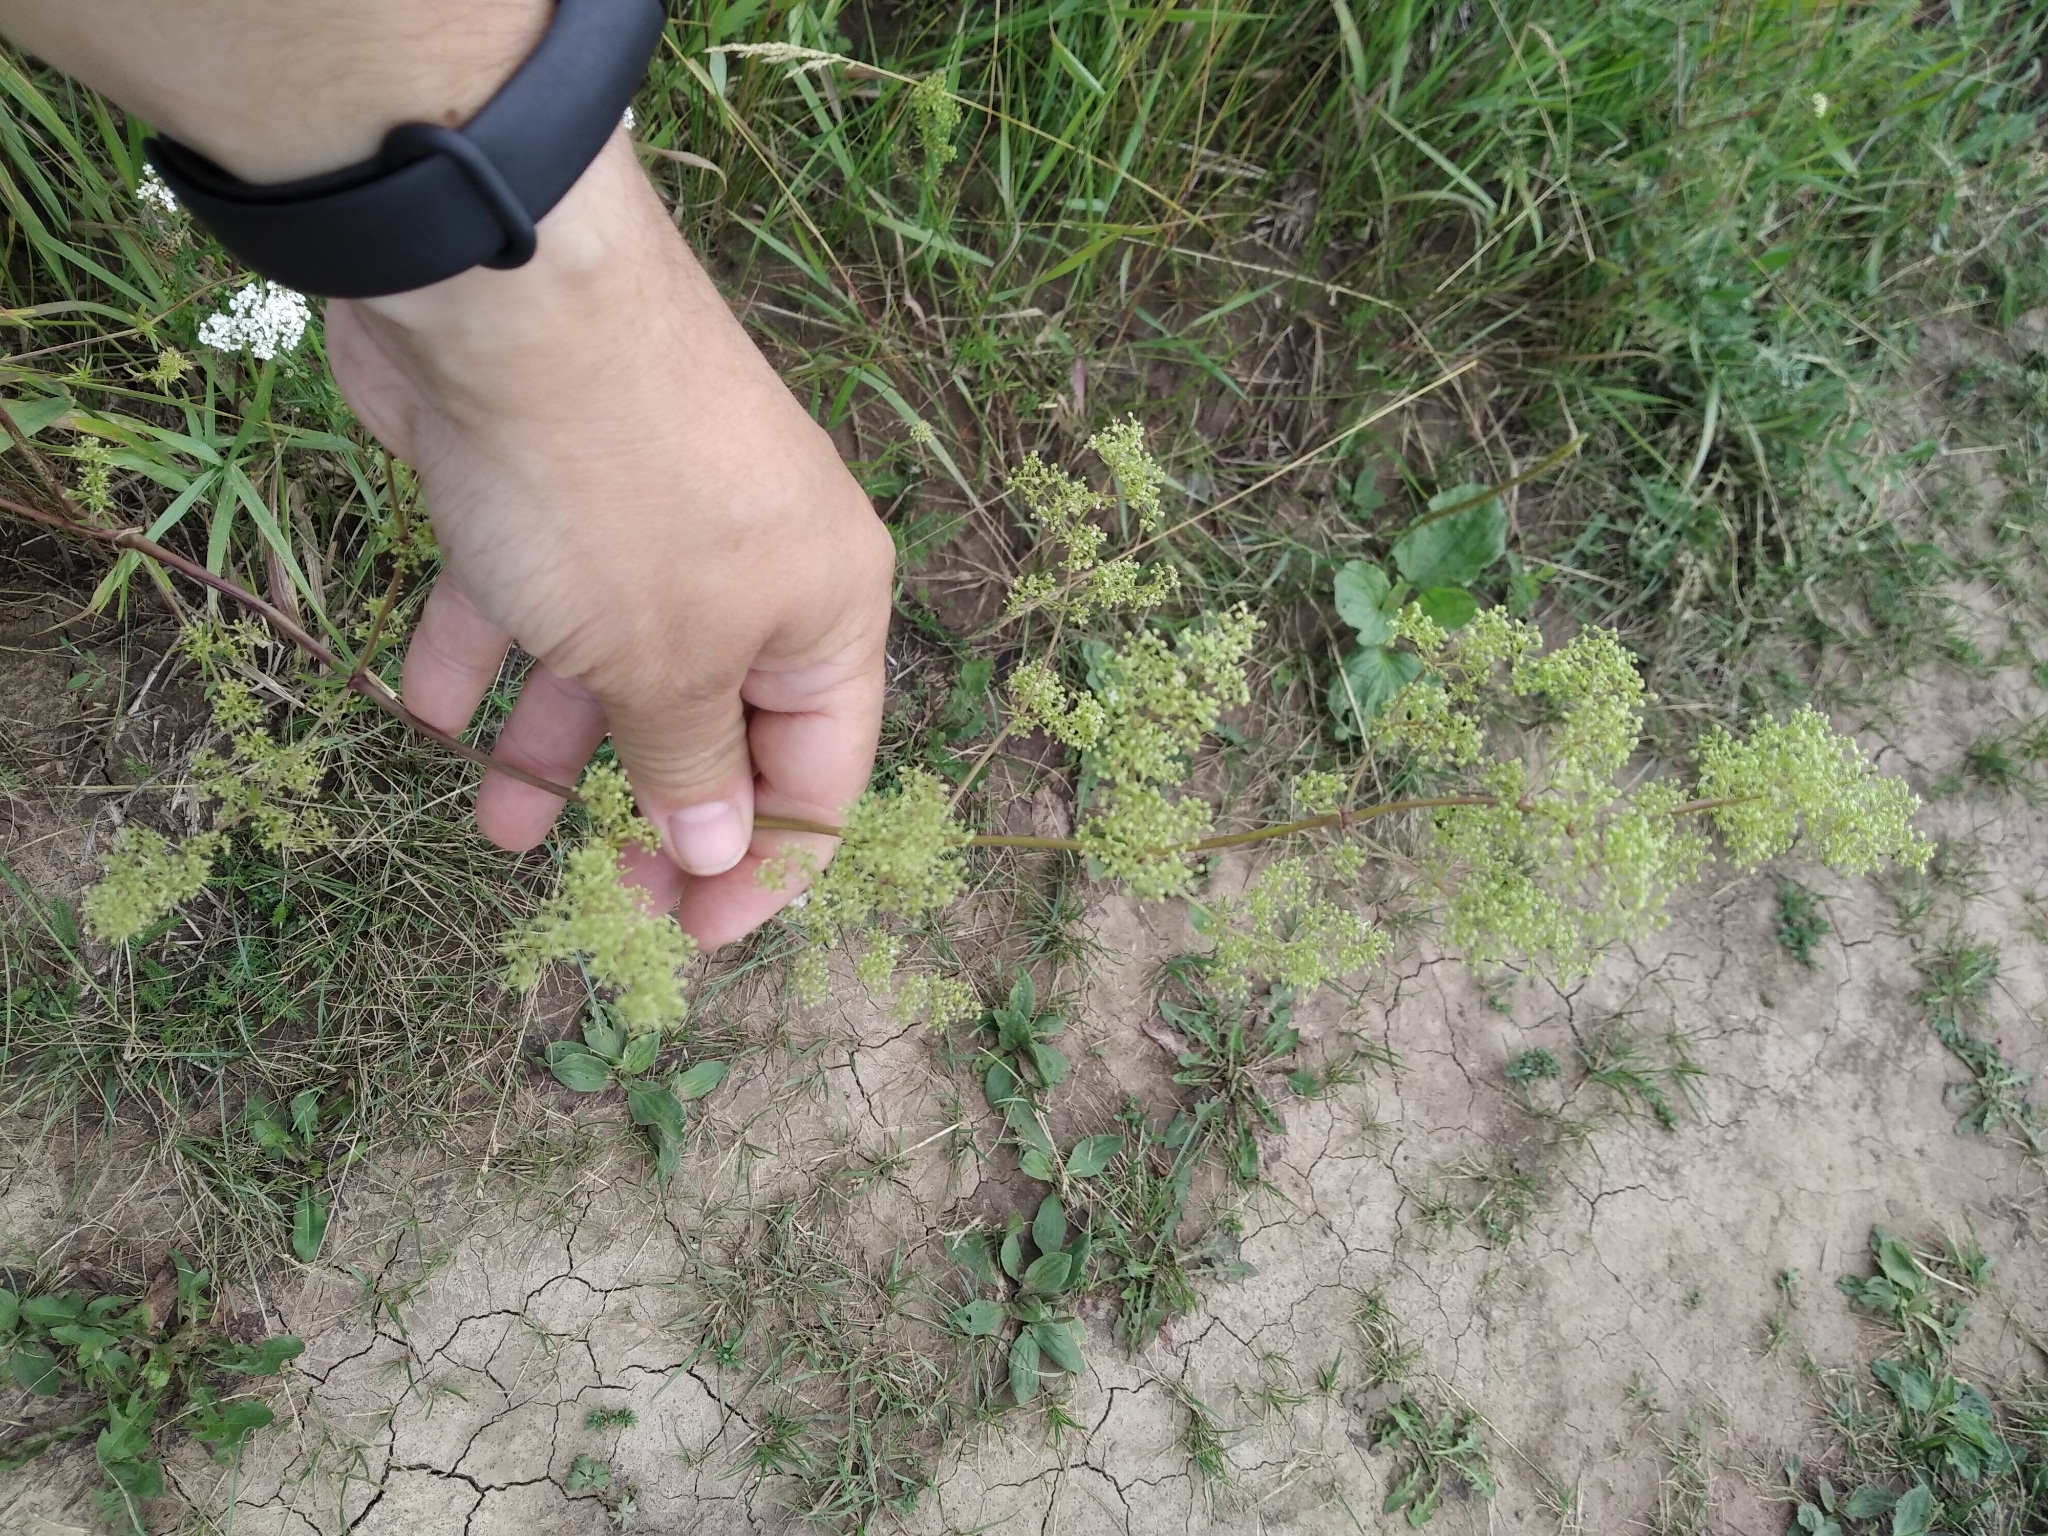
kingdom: Plantae
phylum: Tracheophyta
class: Magnoliopsida
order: Gentianales
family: Rubiaceae
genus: Galium
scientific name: Galium mollugo
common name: Hedge bedstraw
